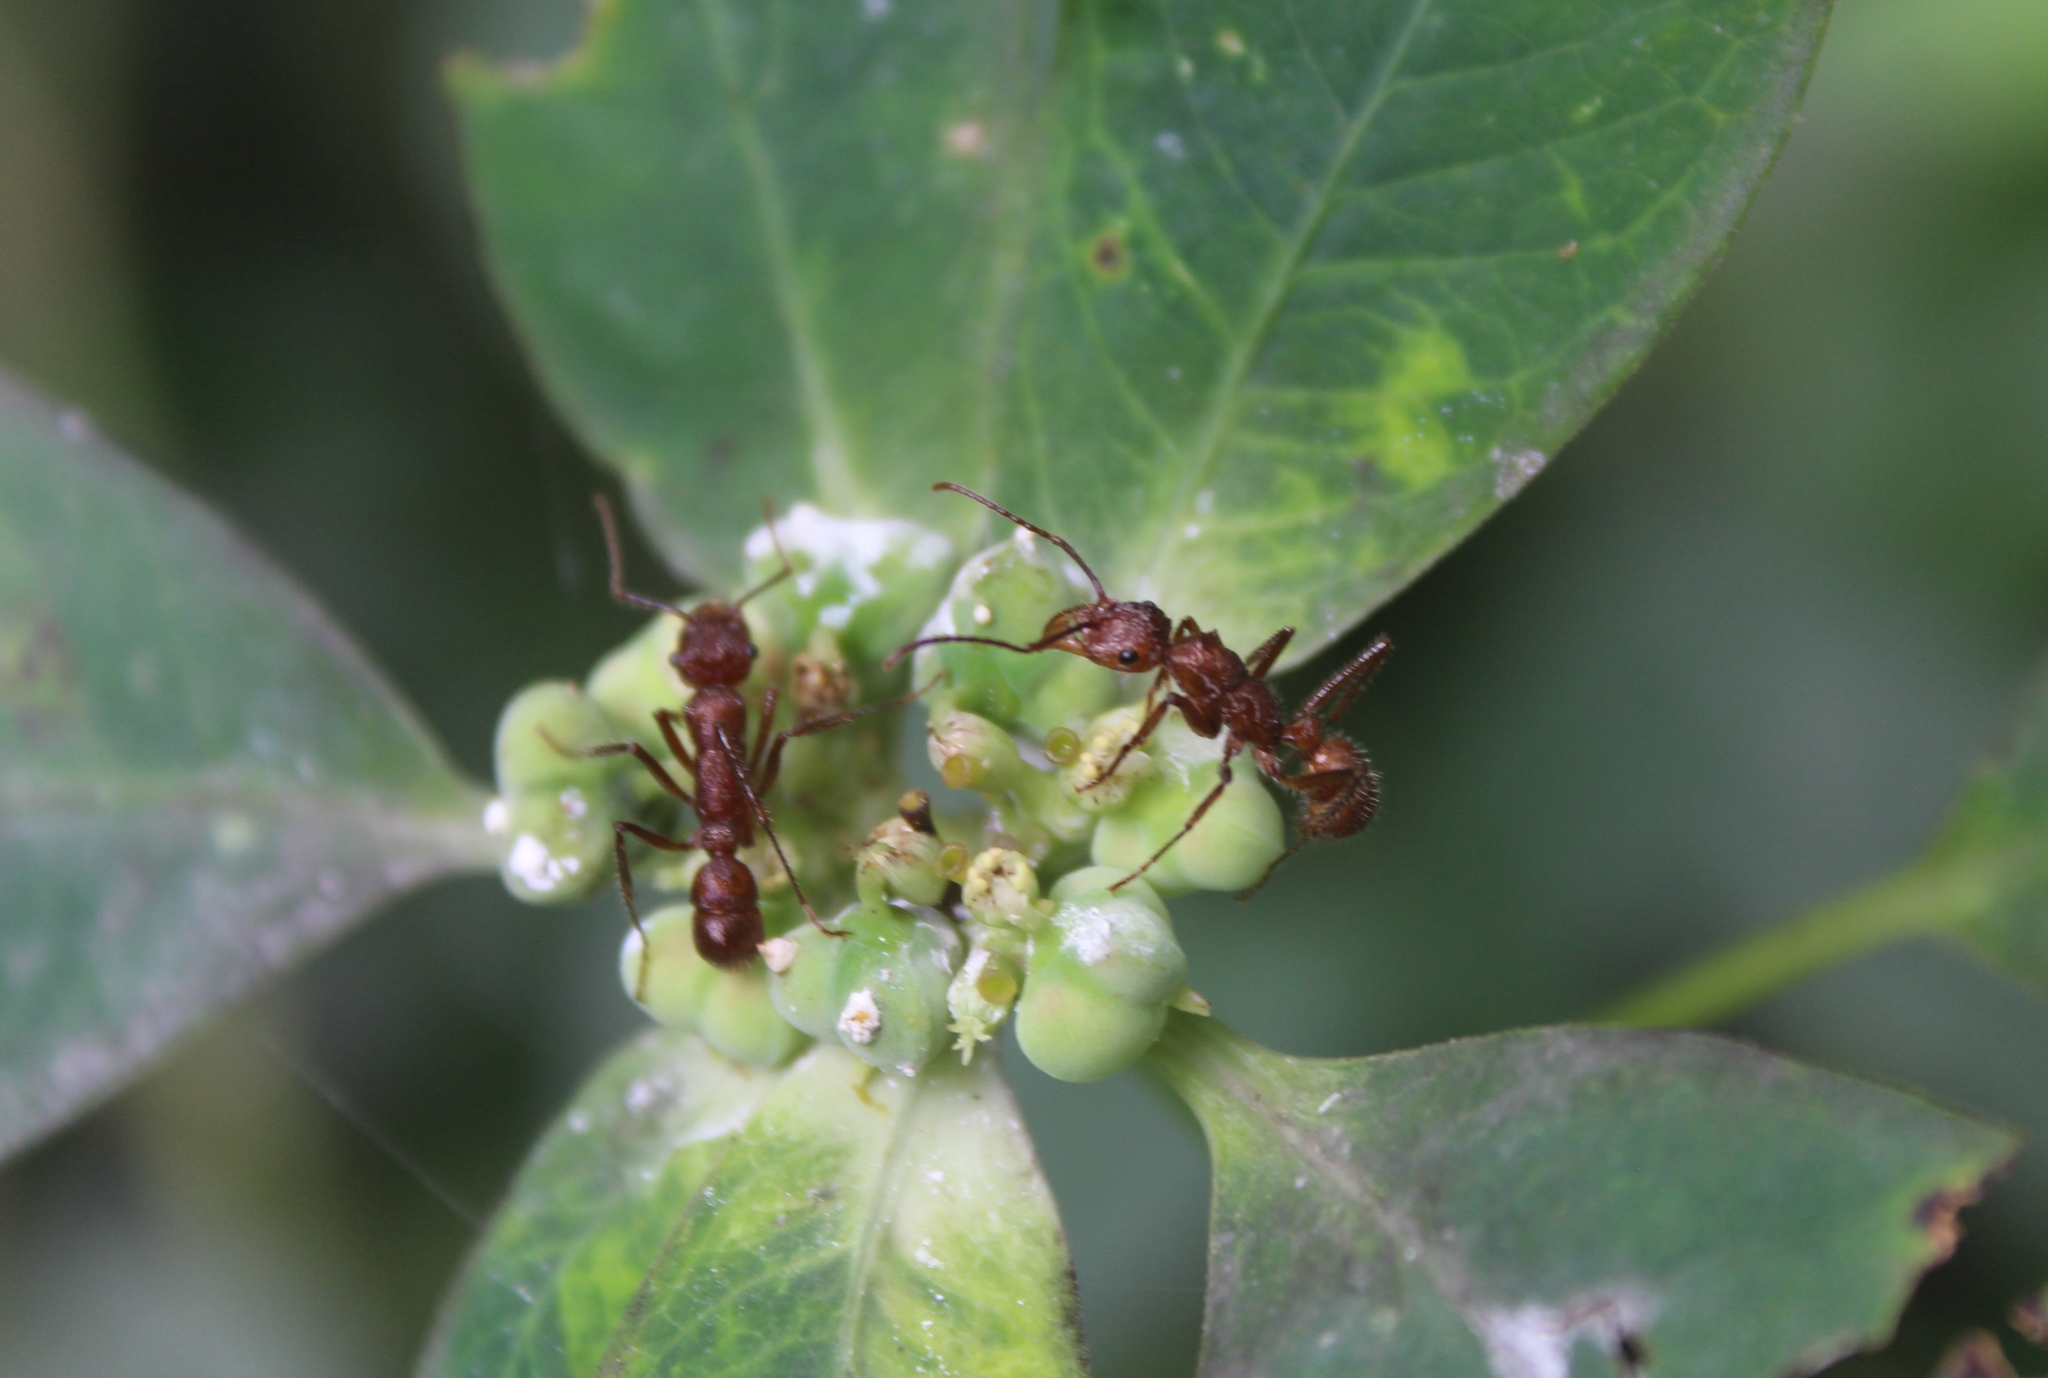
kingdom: Animalia
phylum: Arthropoda
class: Insecta
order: Hymenoptera
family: Formicidae
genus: Ectatomma
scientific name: Ectatomma tuberculatum
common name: Ant
